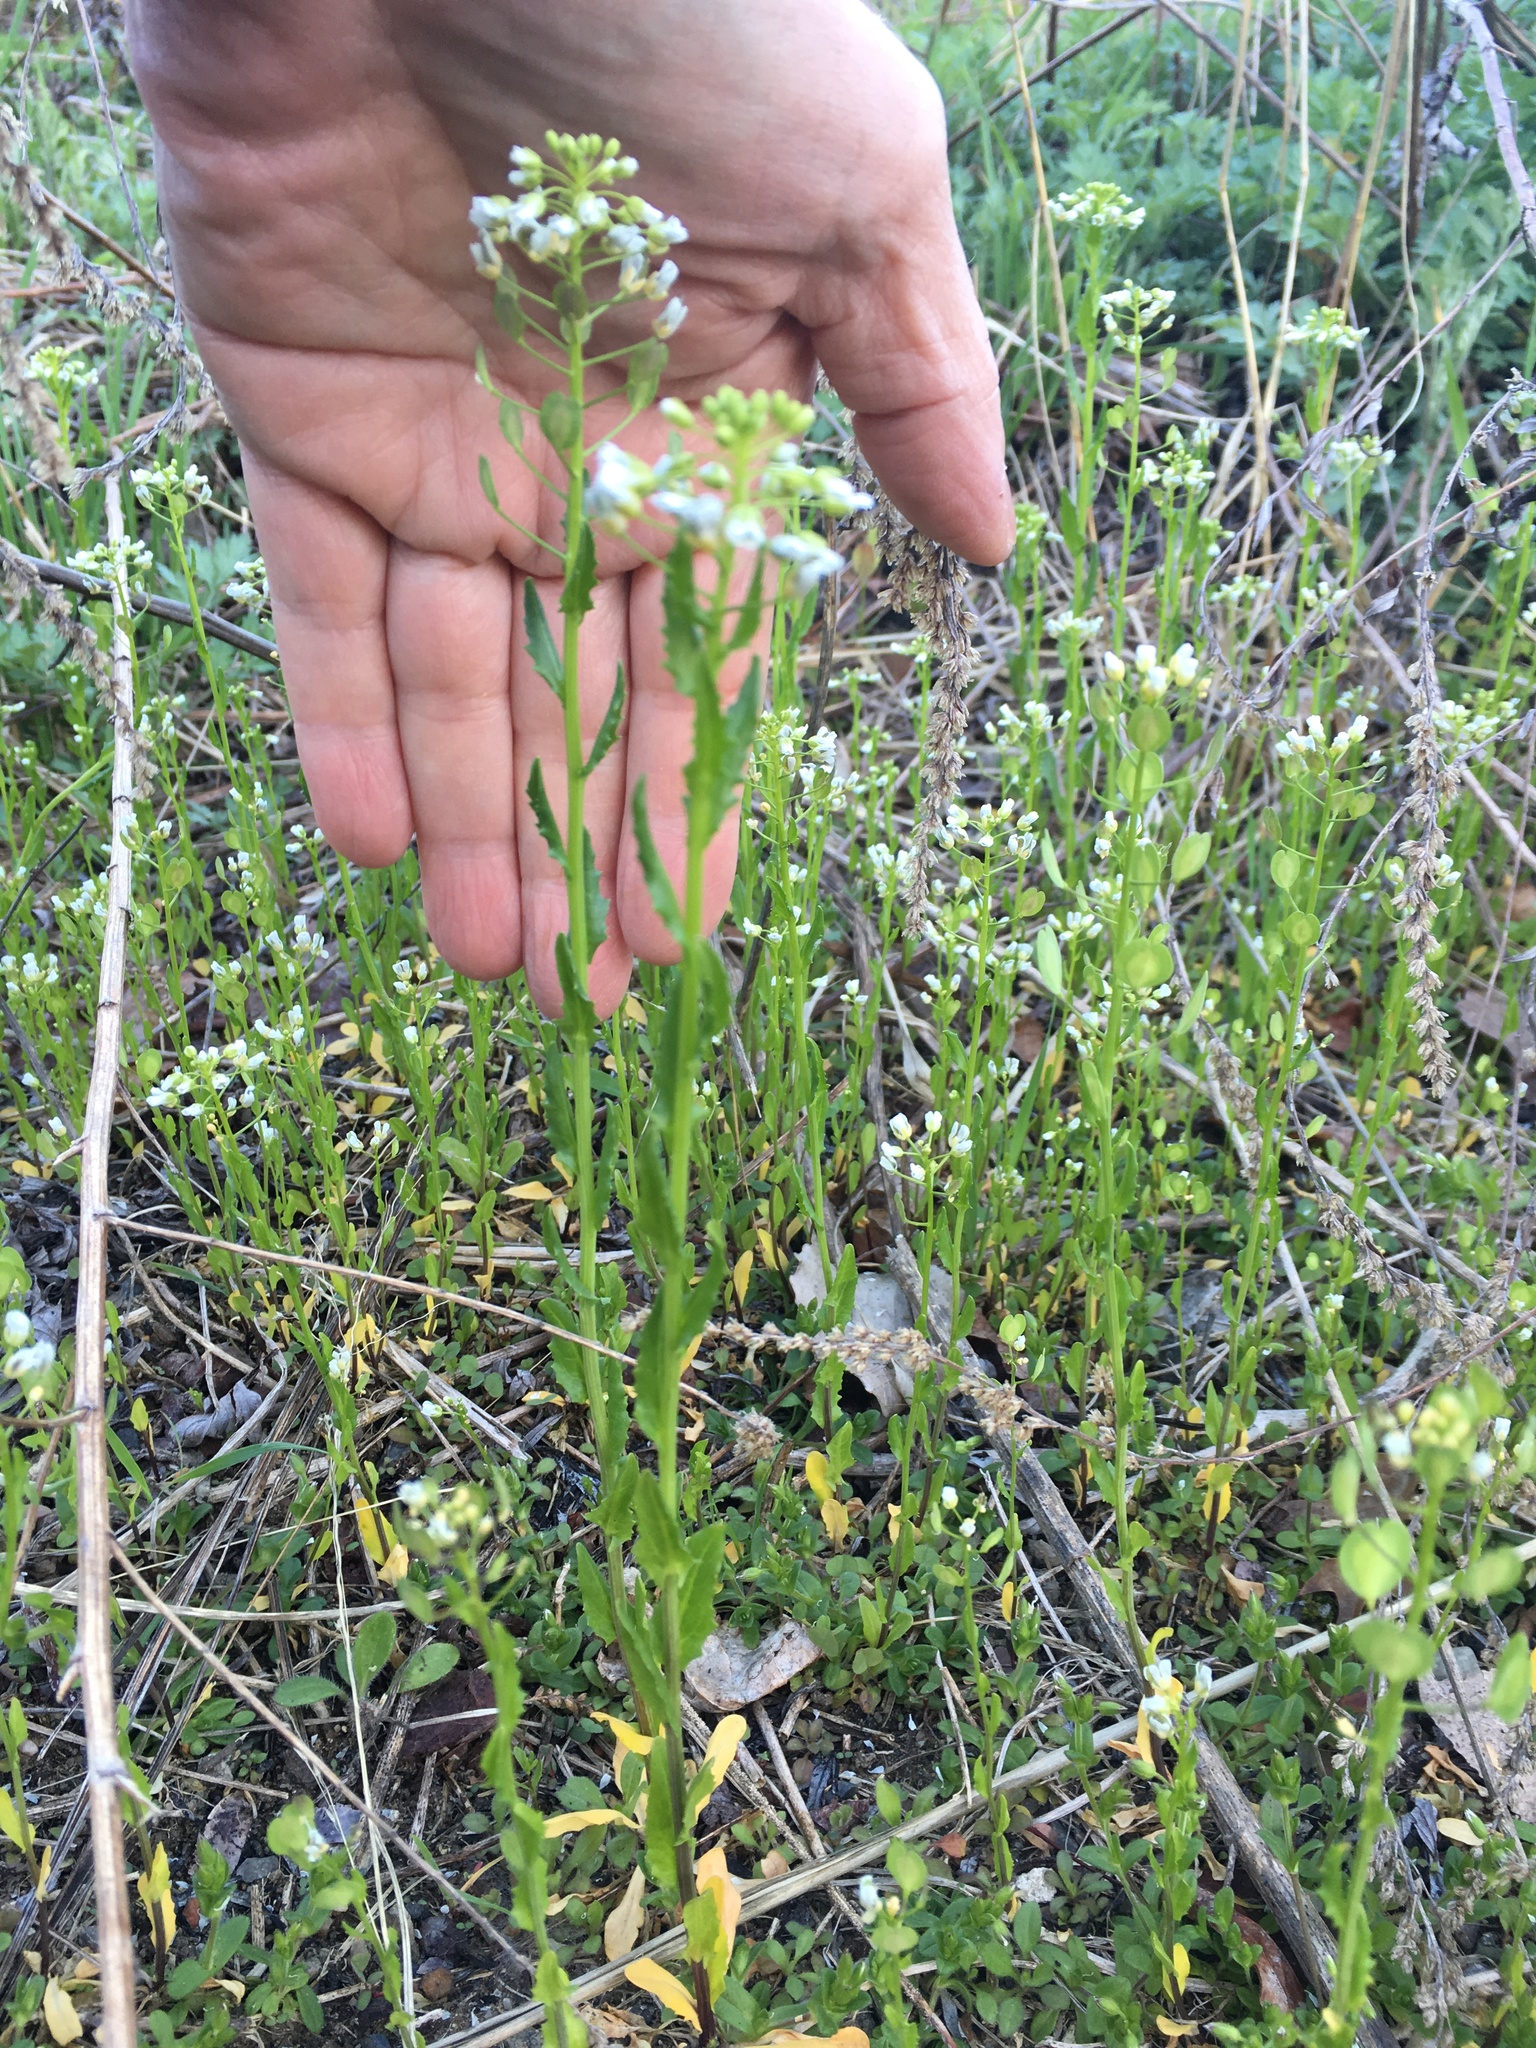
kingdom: Plantae
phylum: Tracheophyta
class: Magnoliopsida
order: Brassicales
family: Brassicaceae
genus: Thlaspi
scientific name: Thlaspi arvense
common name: Field pennycress
